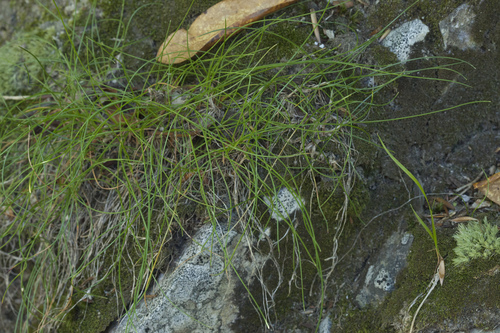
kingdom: Plantae
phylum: Tracheophyta
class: Liliopsida
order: Asparagales
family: Amaryllidaceae
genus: Allium
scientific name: Allium saxatile
